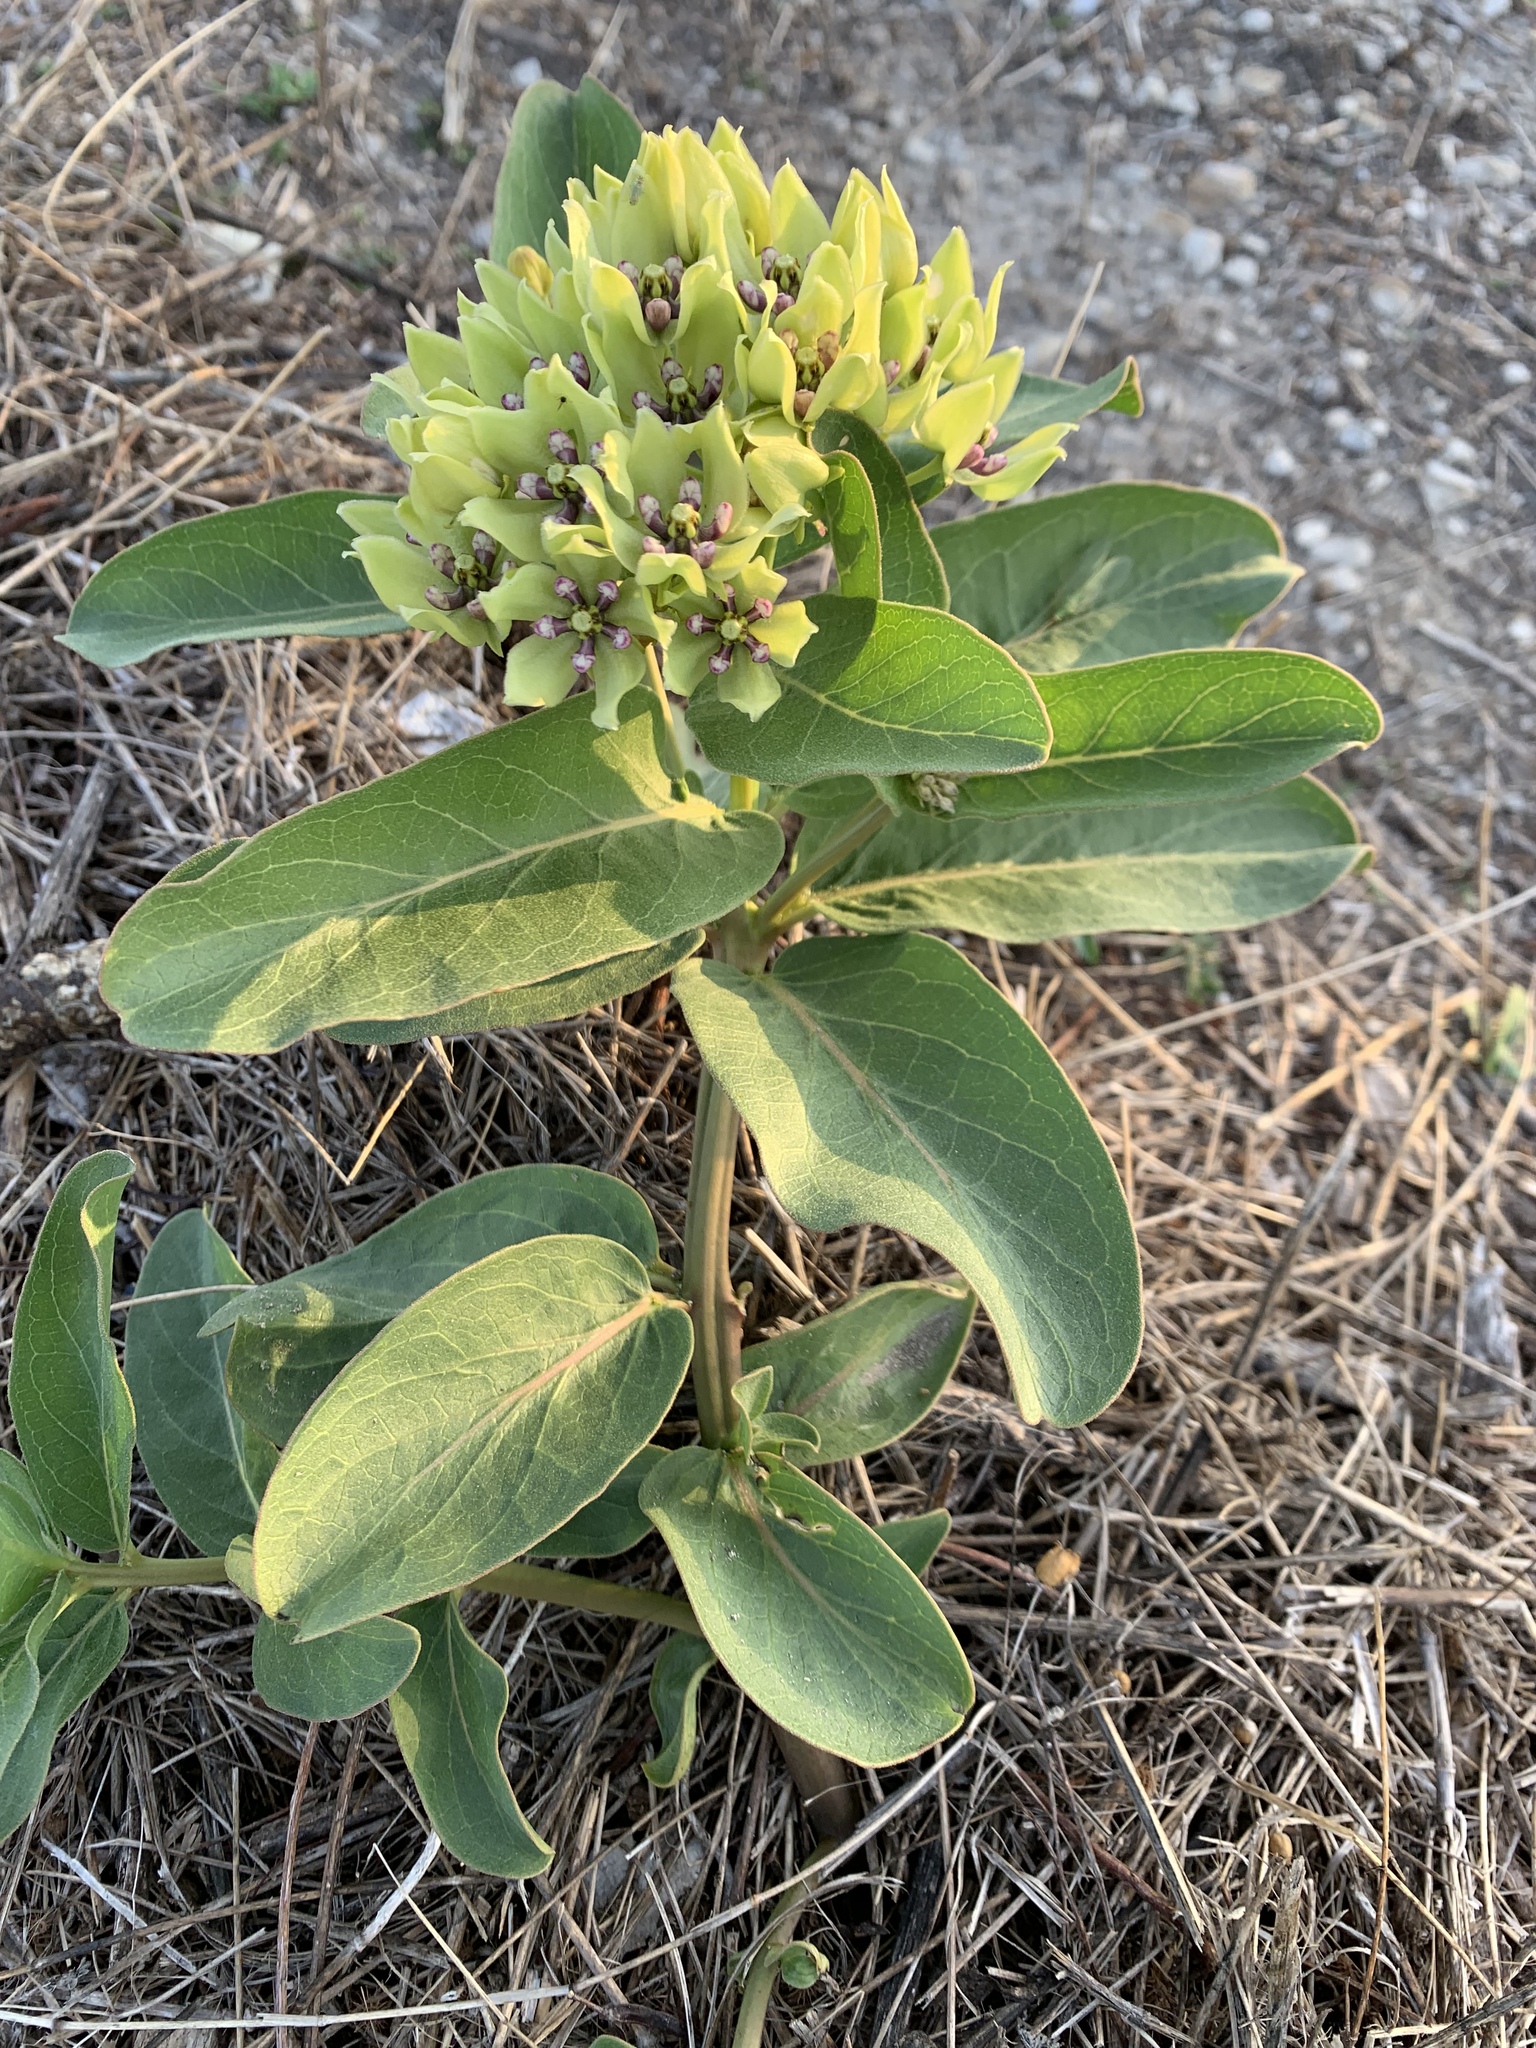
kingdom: Plantae
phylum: Tracheophyta
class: Magnoliopsida
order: Gentianales
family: Apocynaceae
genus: Asclepias
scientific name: Asclepias viridis
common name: Antelope-horns
